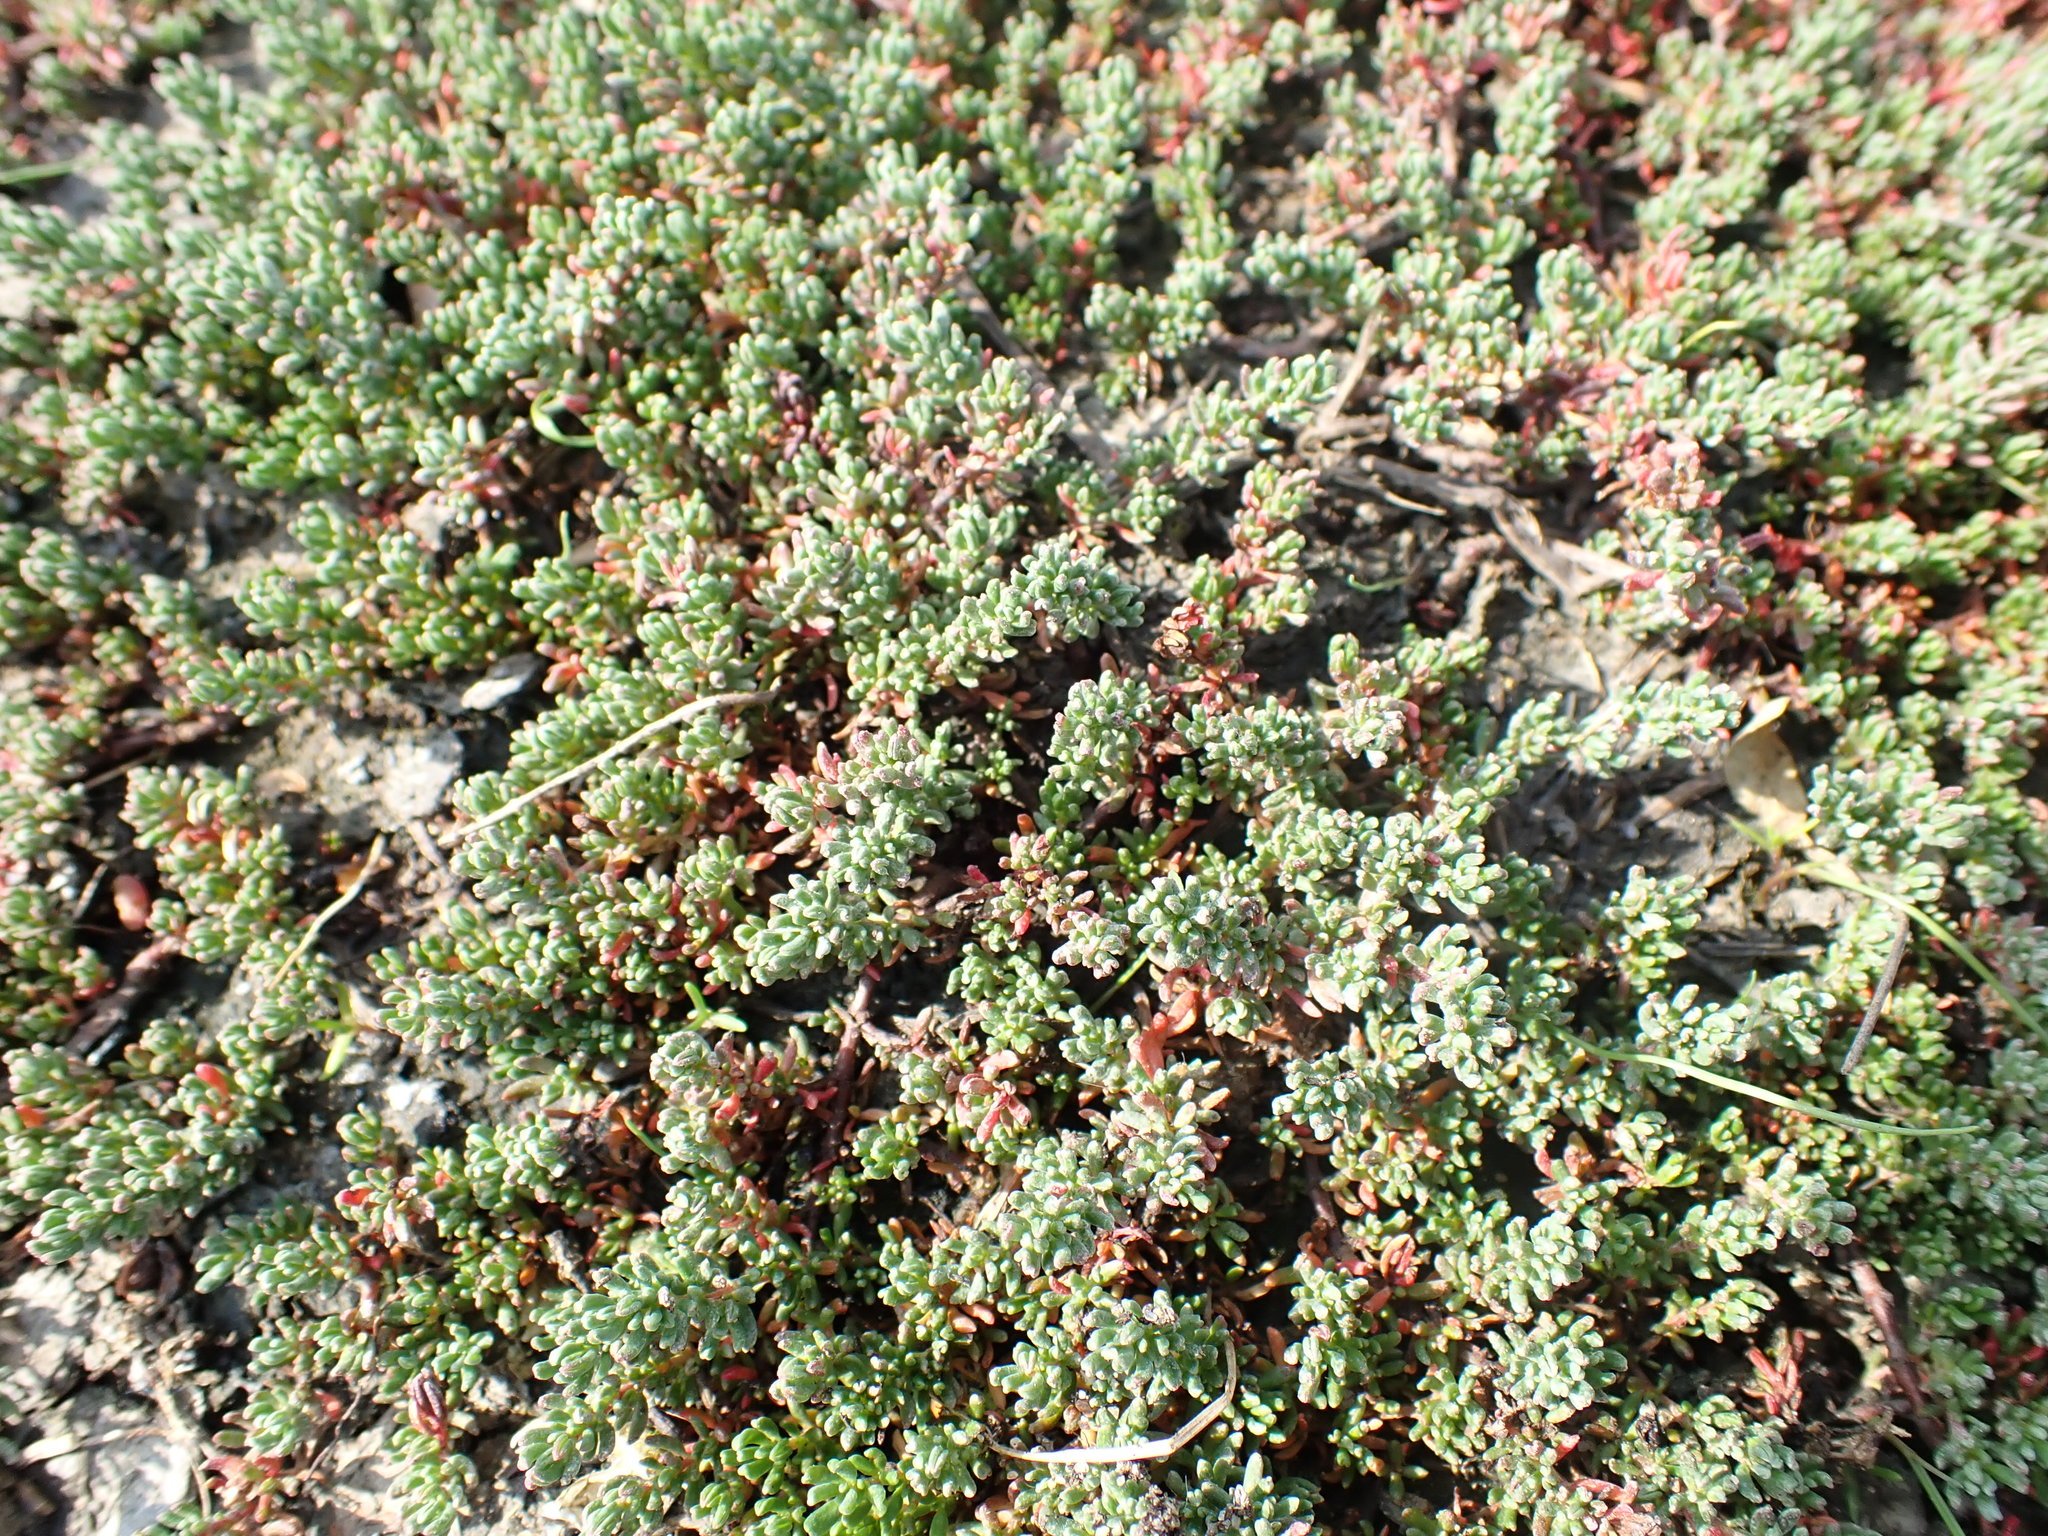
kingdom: Plantae
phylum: Tracheophyta
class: Magnoliopsida
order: Caryophyllales
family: Frankeniaceae
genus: Frankenia
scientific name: Frankenia laevis
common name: Sea-heath
